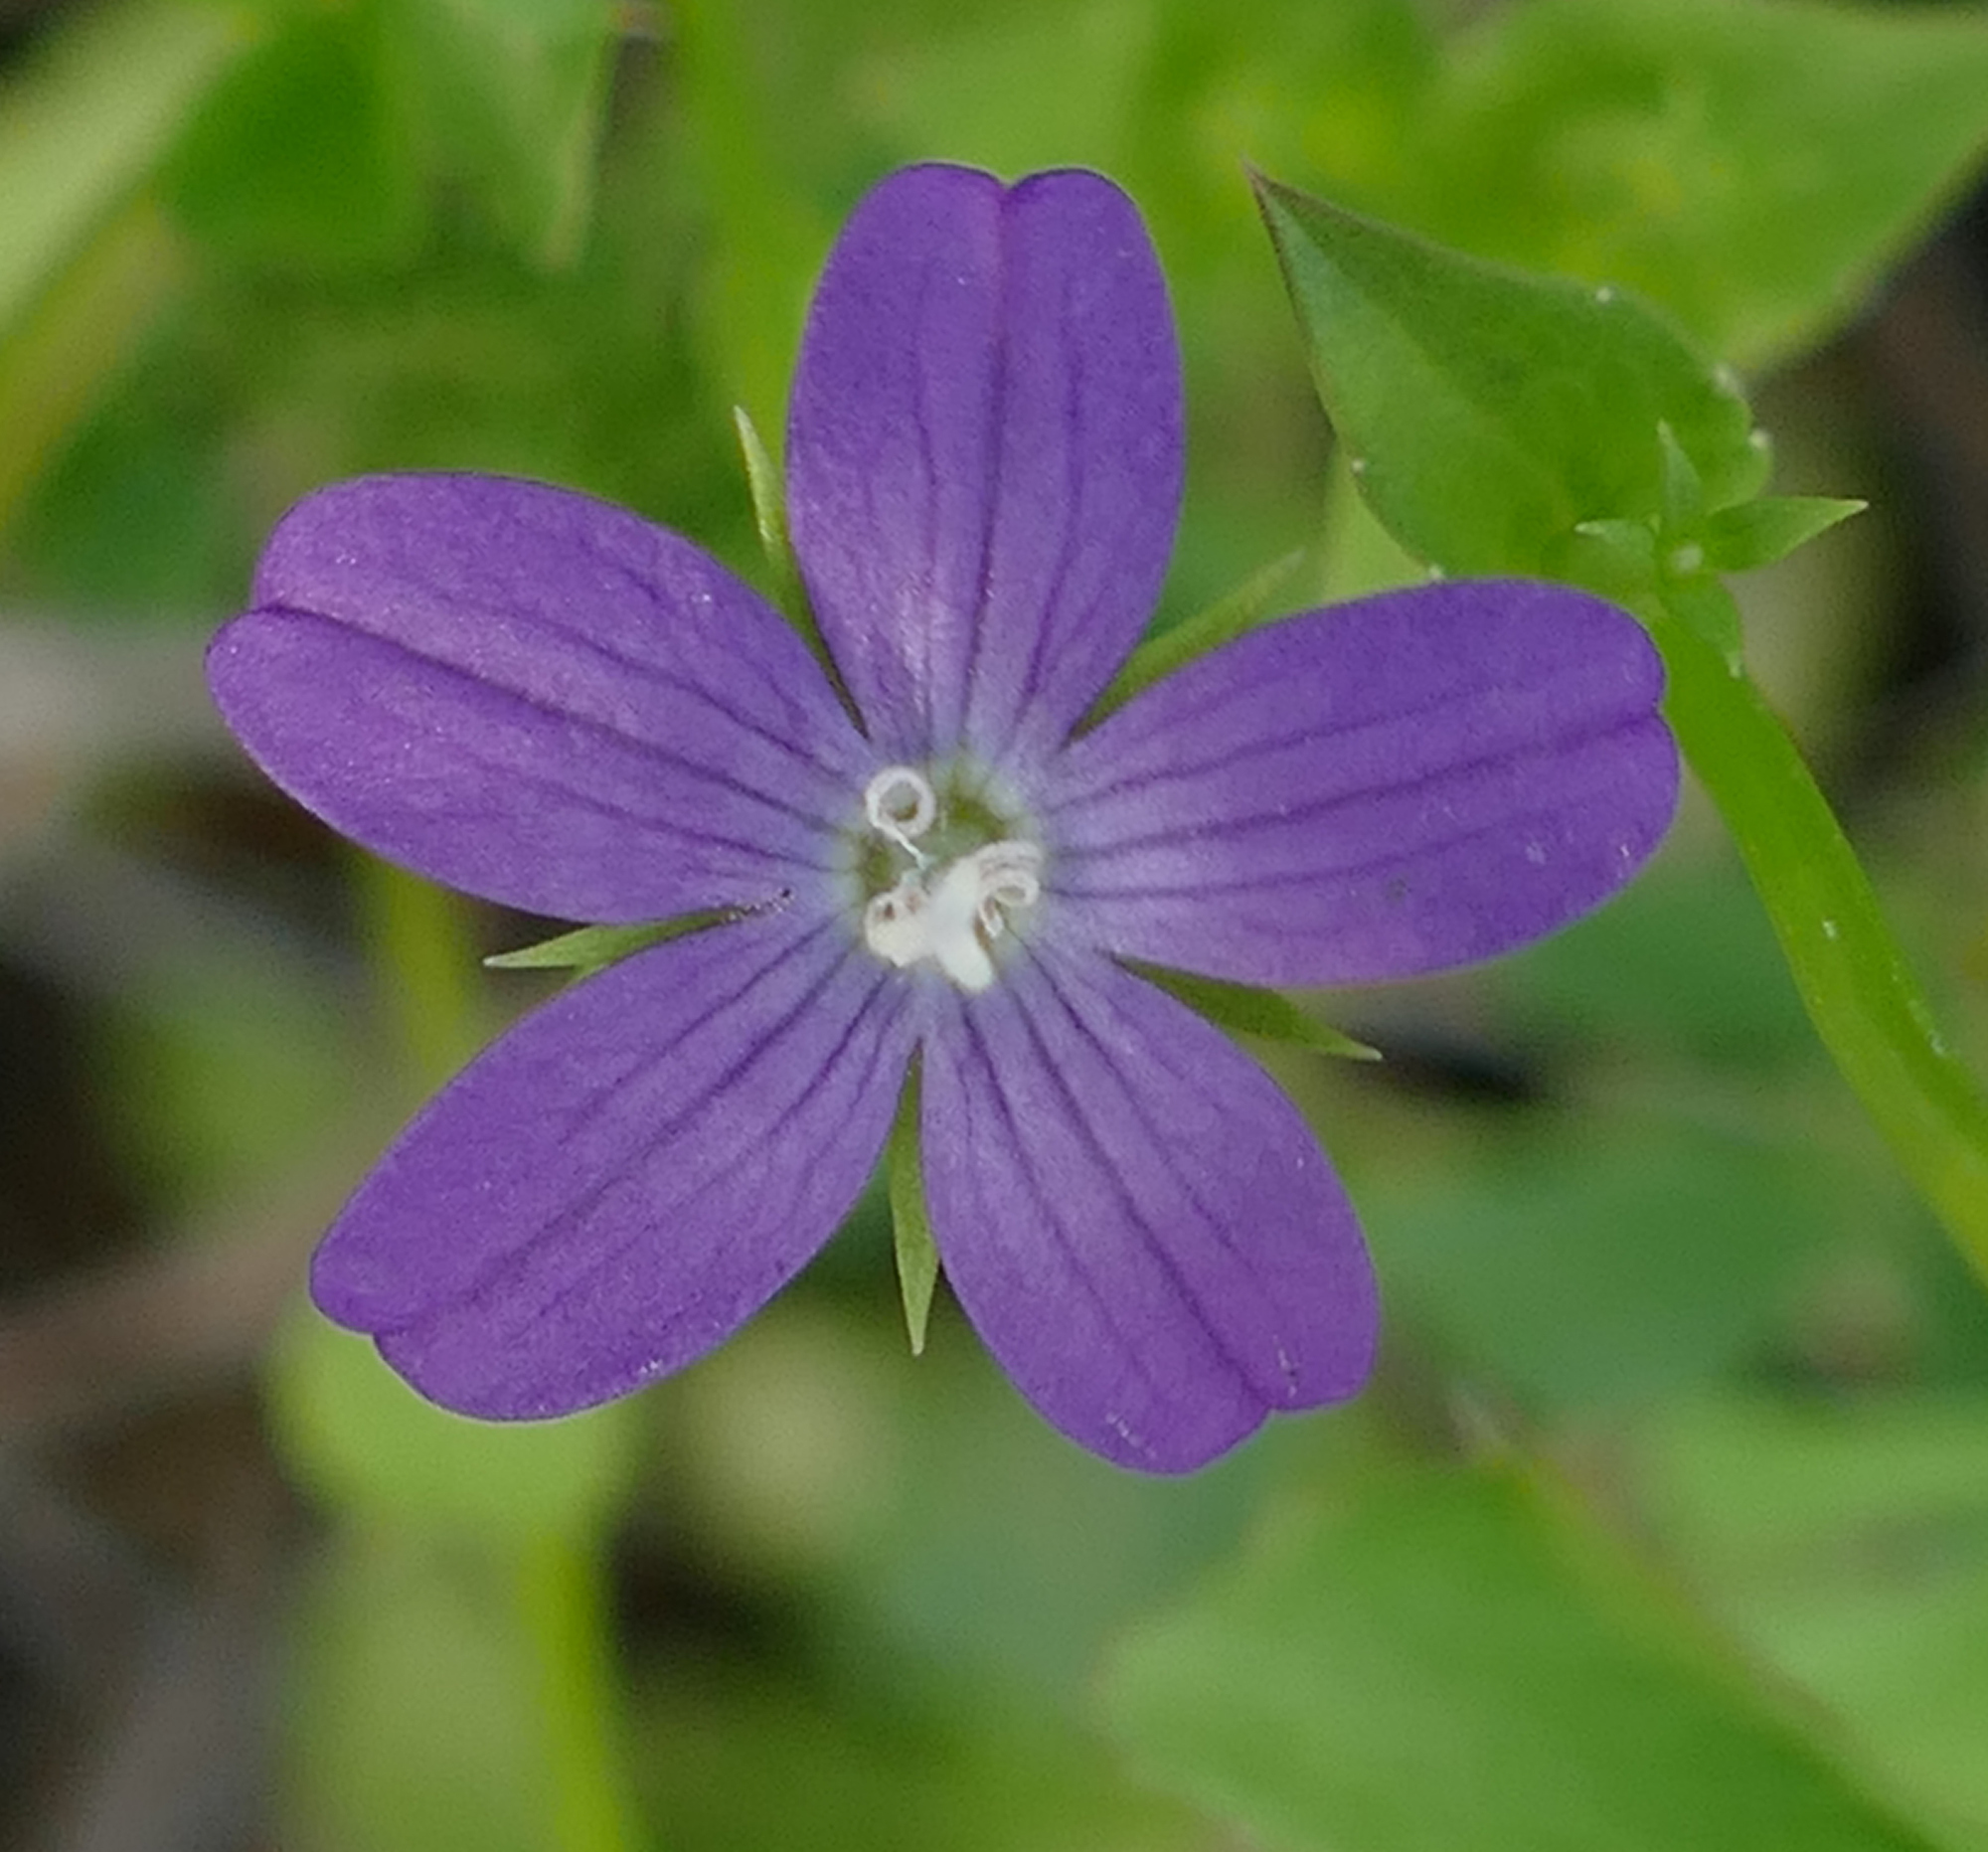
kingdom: Plantae
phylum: Tracheophyta
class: Magnoliopsida
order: Asterales
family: Campanulaceae
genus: Triodanis
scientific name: Triodanis biflora
